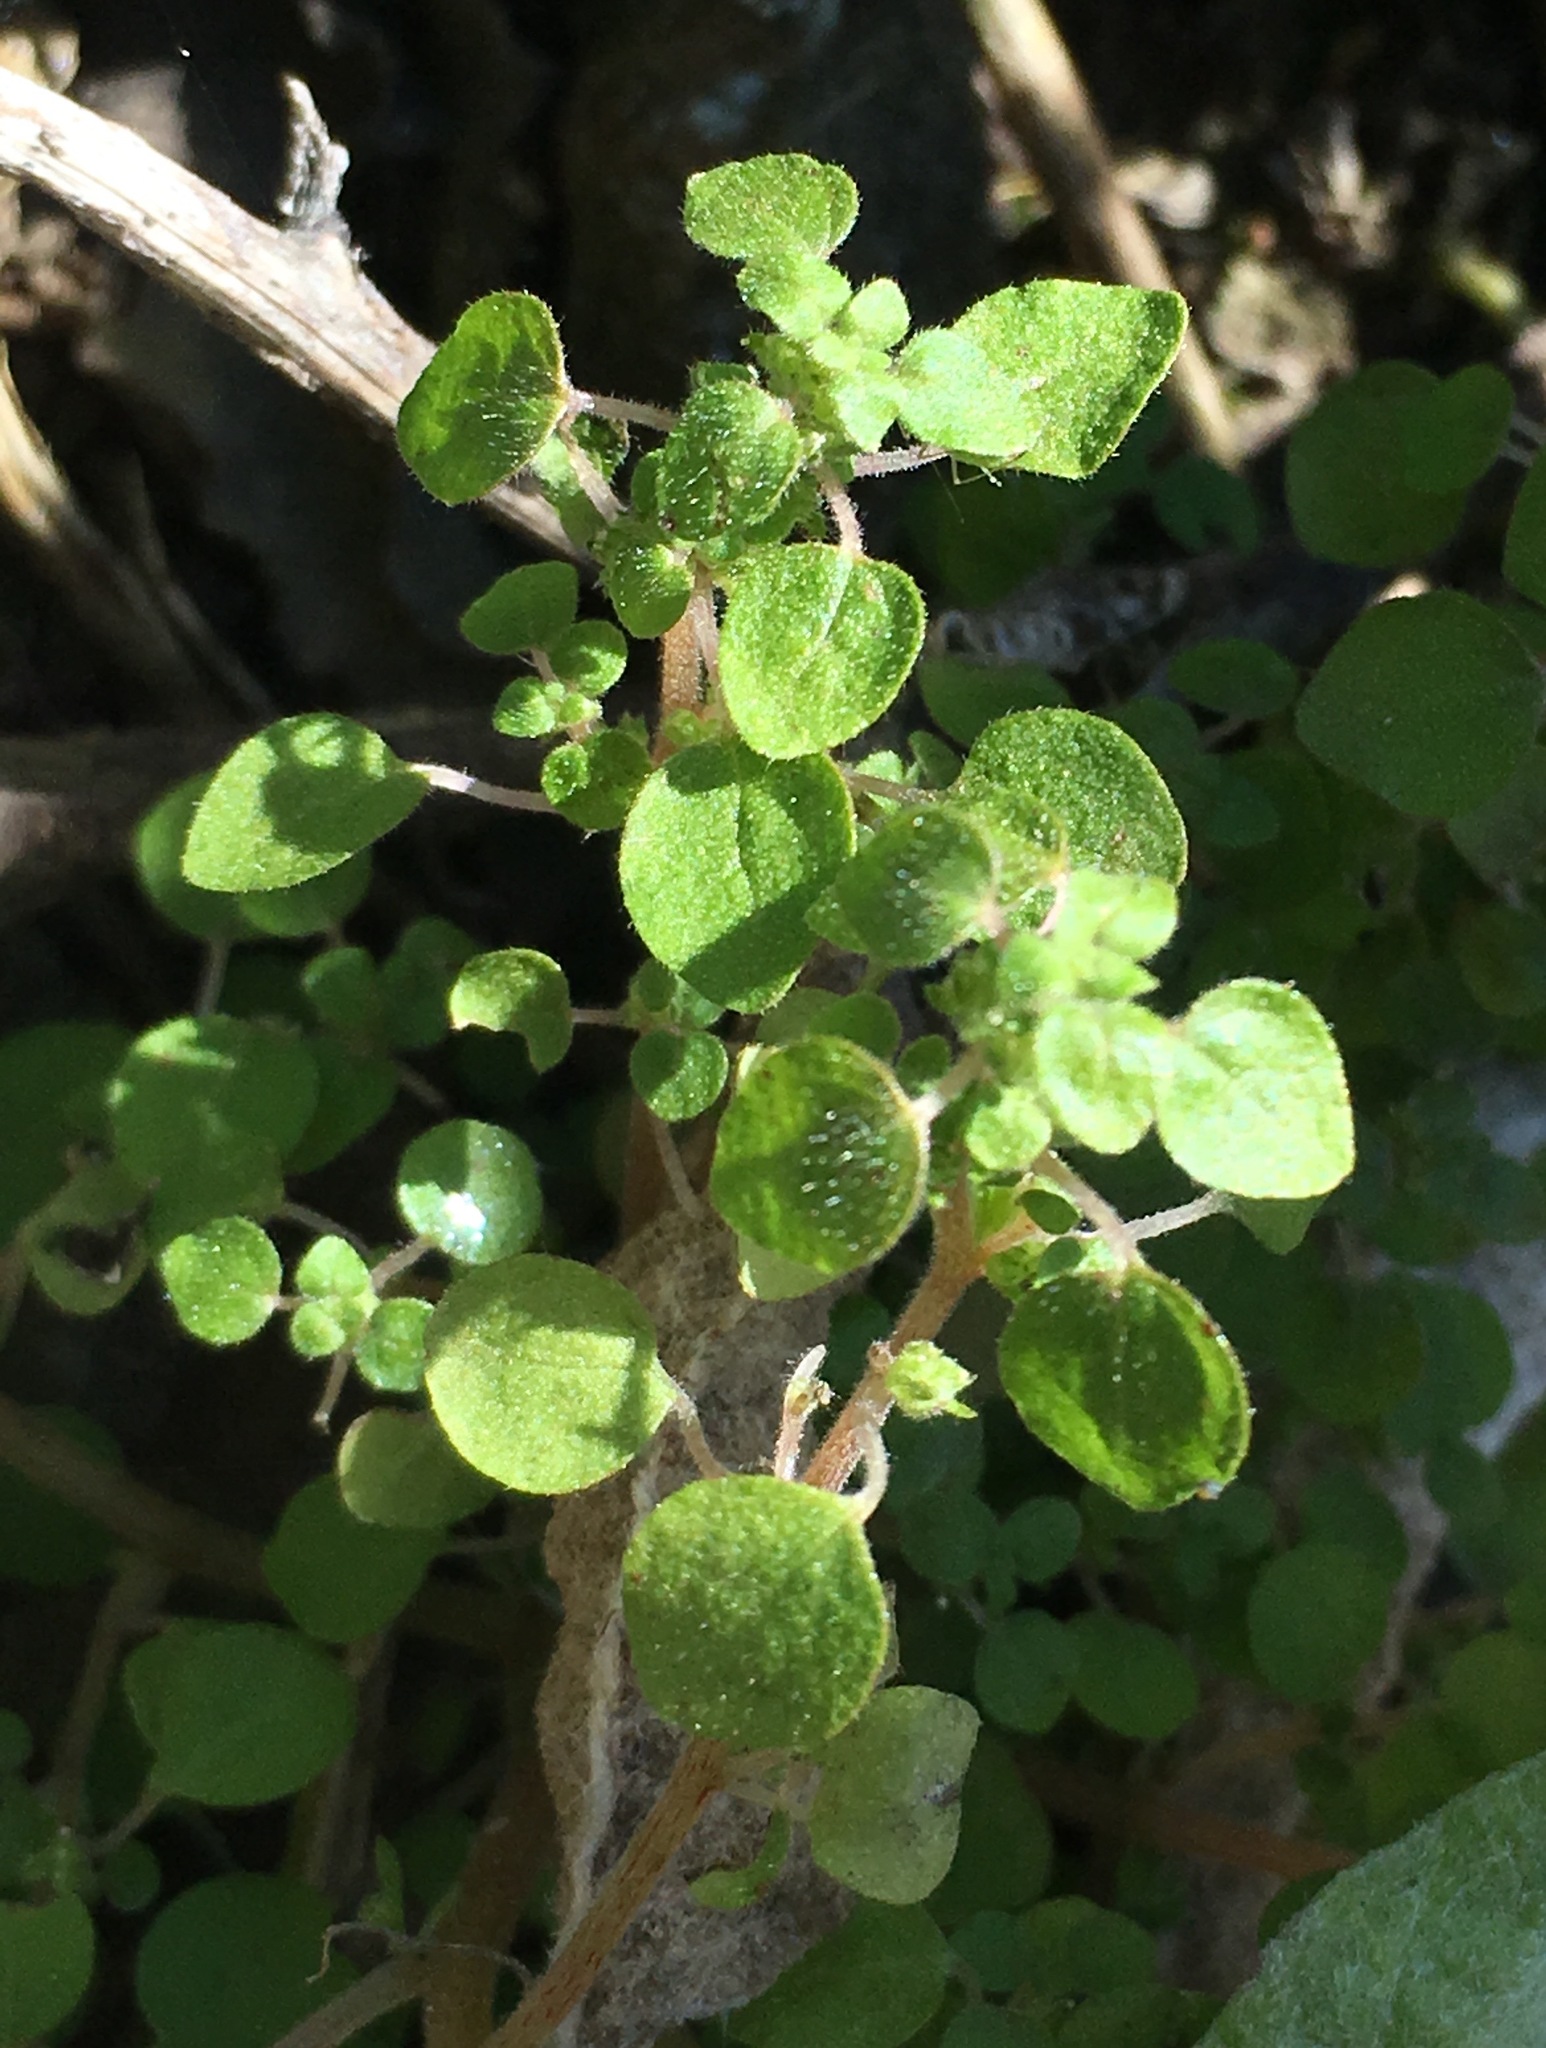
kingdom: Plantae
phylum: Tracheophyta
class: Magnoliopsida
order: Rosales
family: Urticaceae
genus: Parietaria
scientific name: Parietaria hespera
